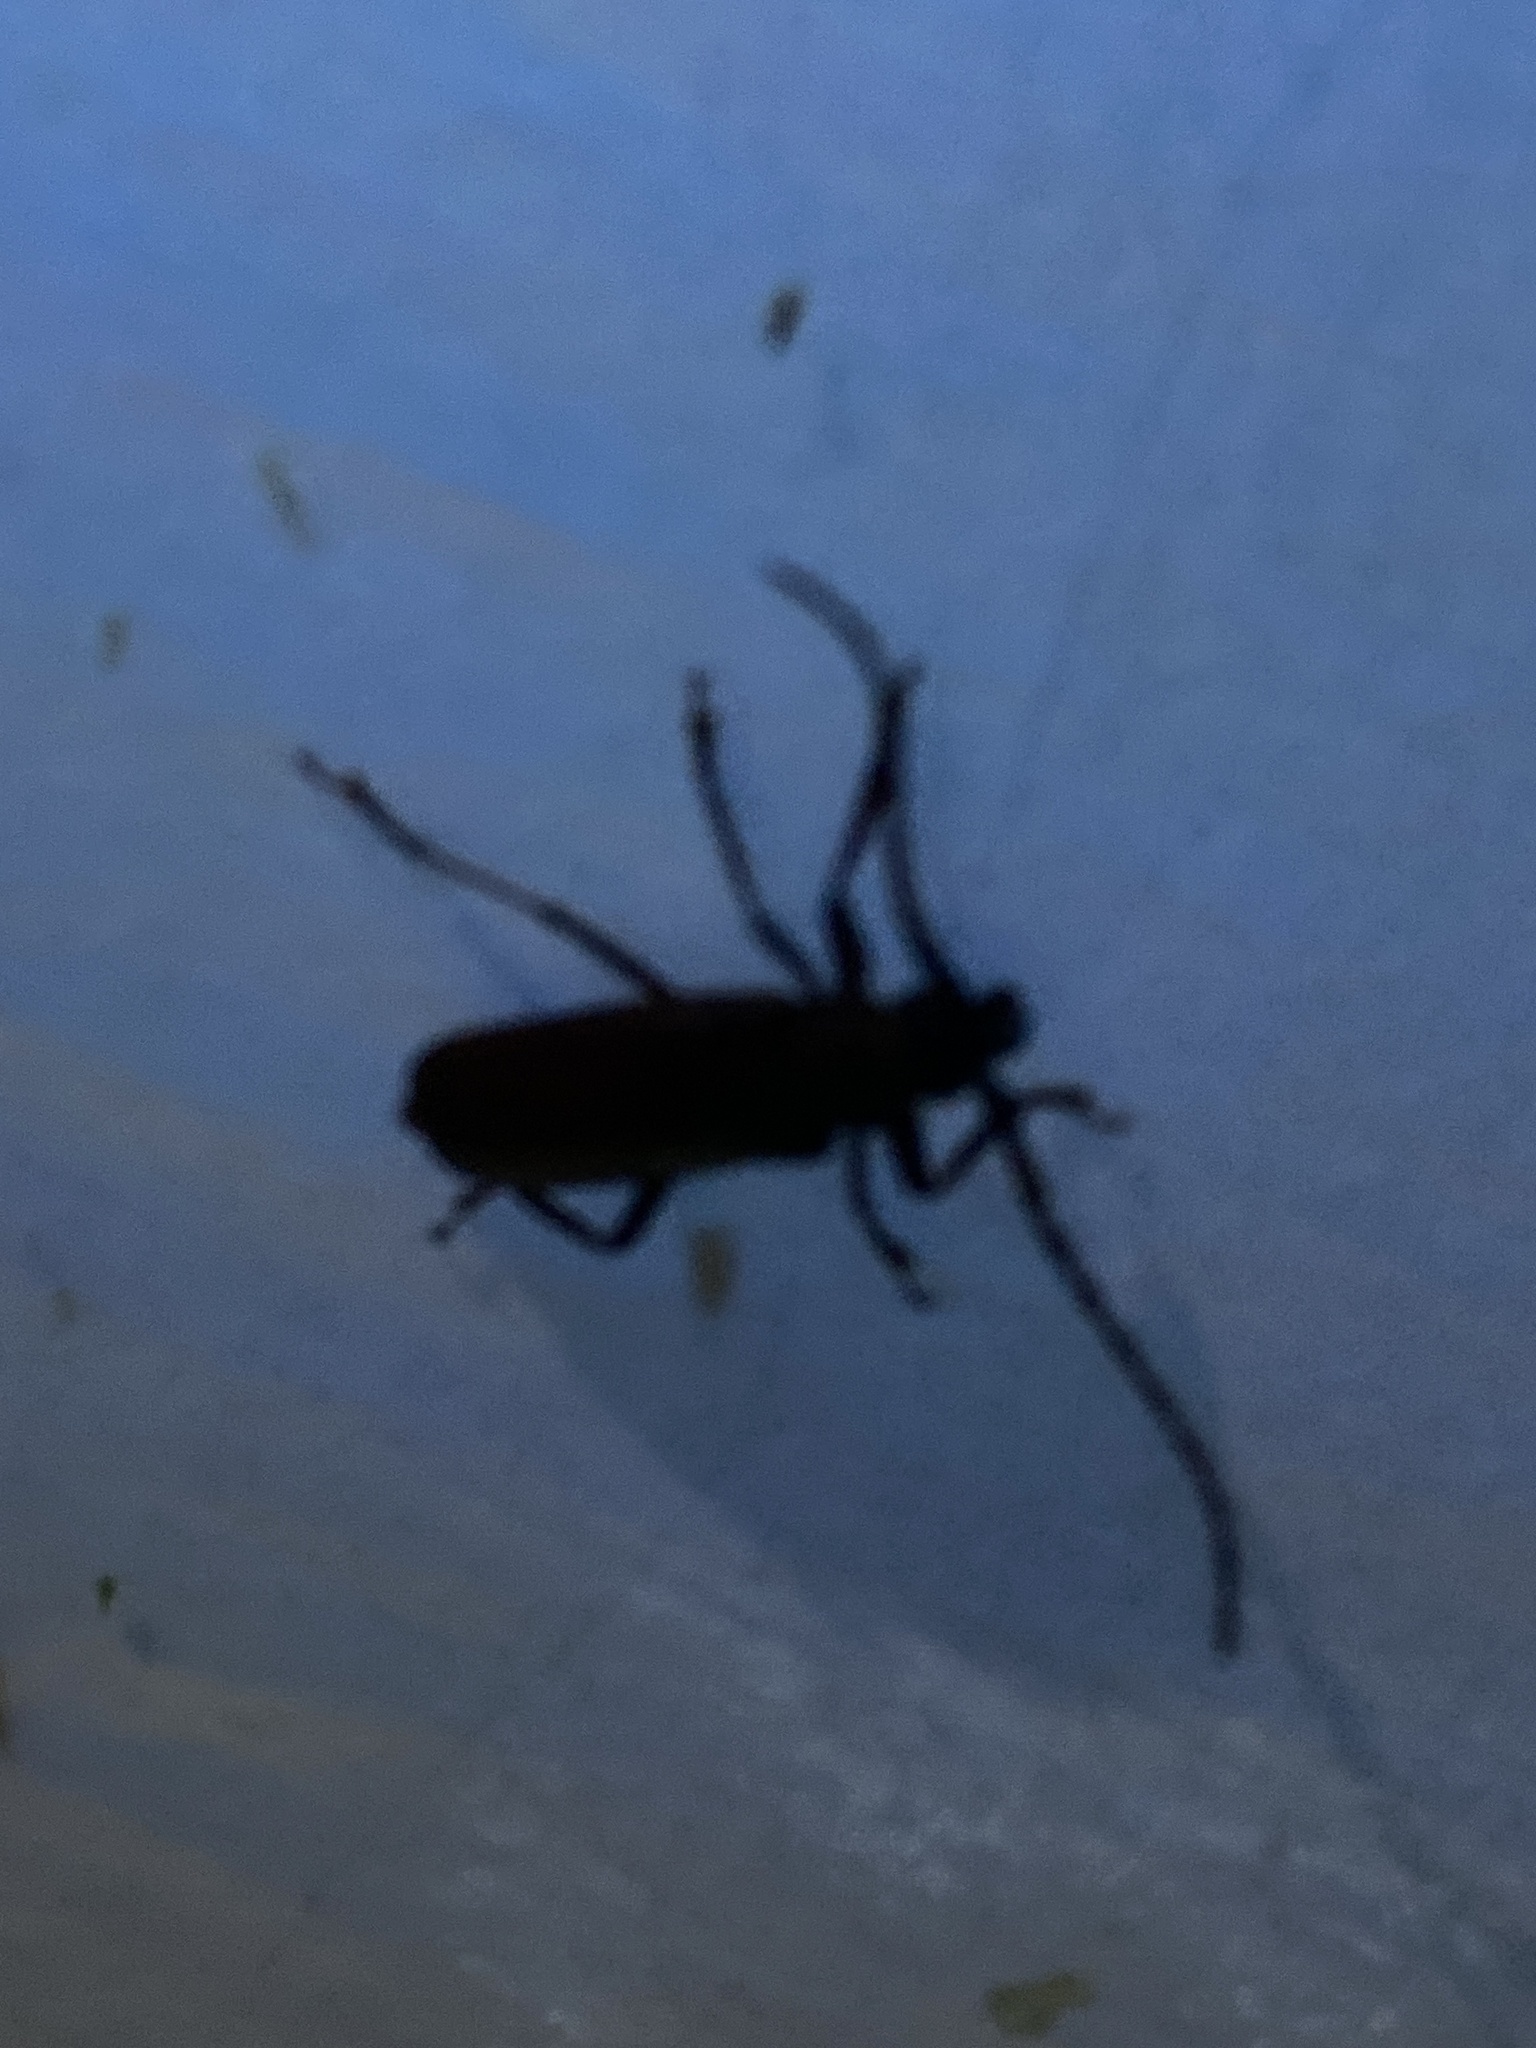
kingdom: Animalia
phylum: Arthropoda
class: Insecta
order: Coleoptera
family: Cerambycidae
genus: Orthosoma
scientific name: Orthosoma brunneum
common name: Brown prionid beetle
